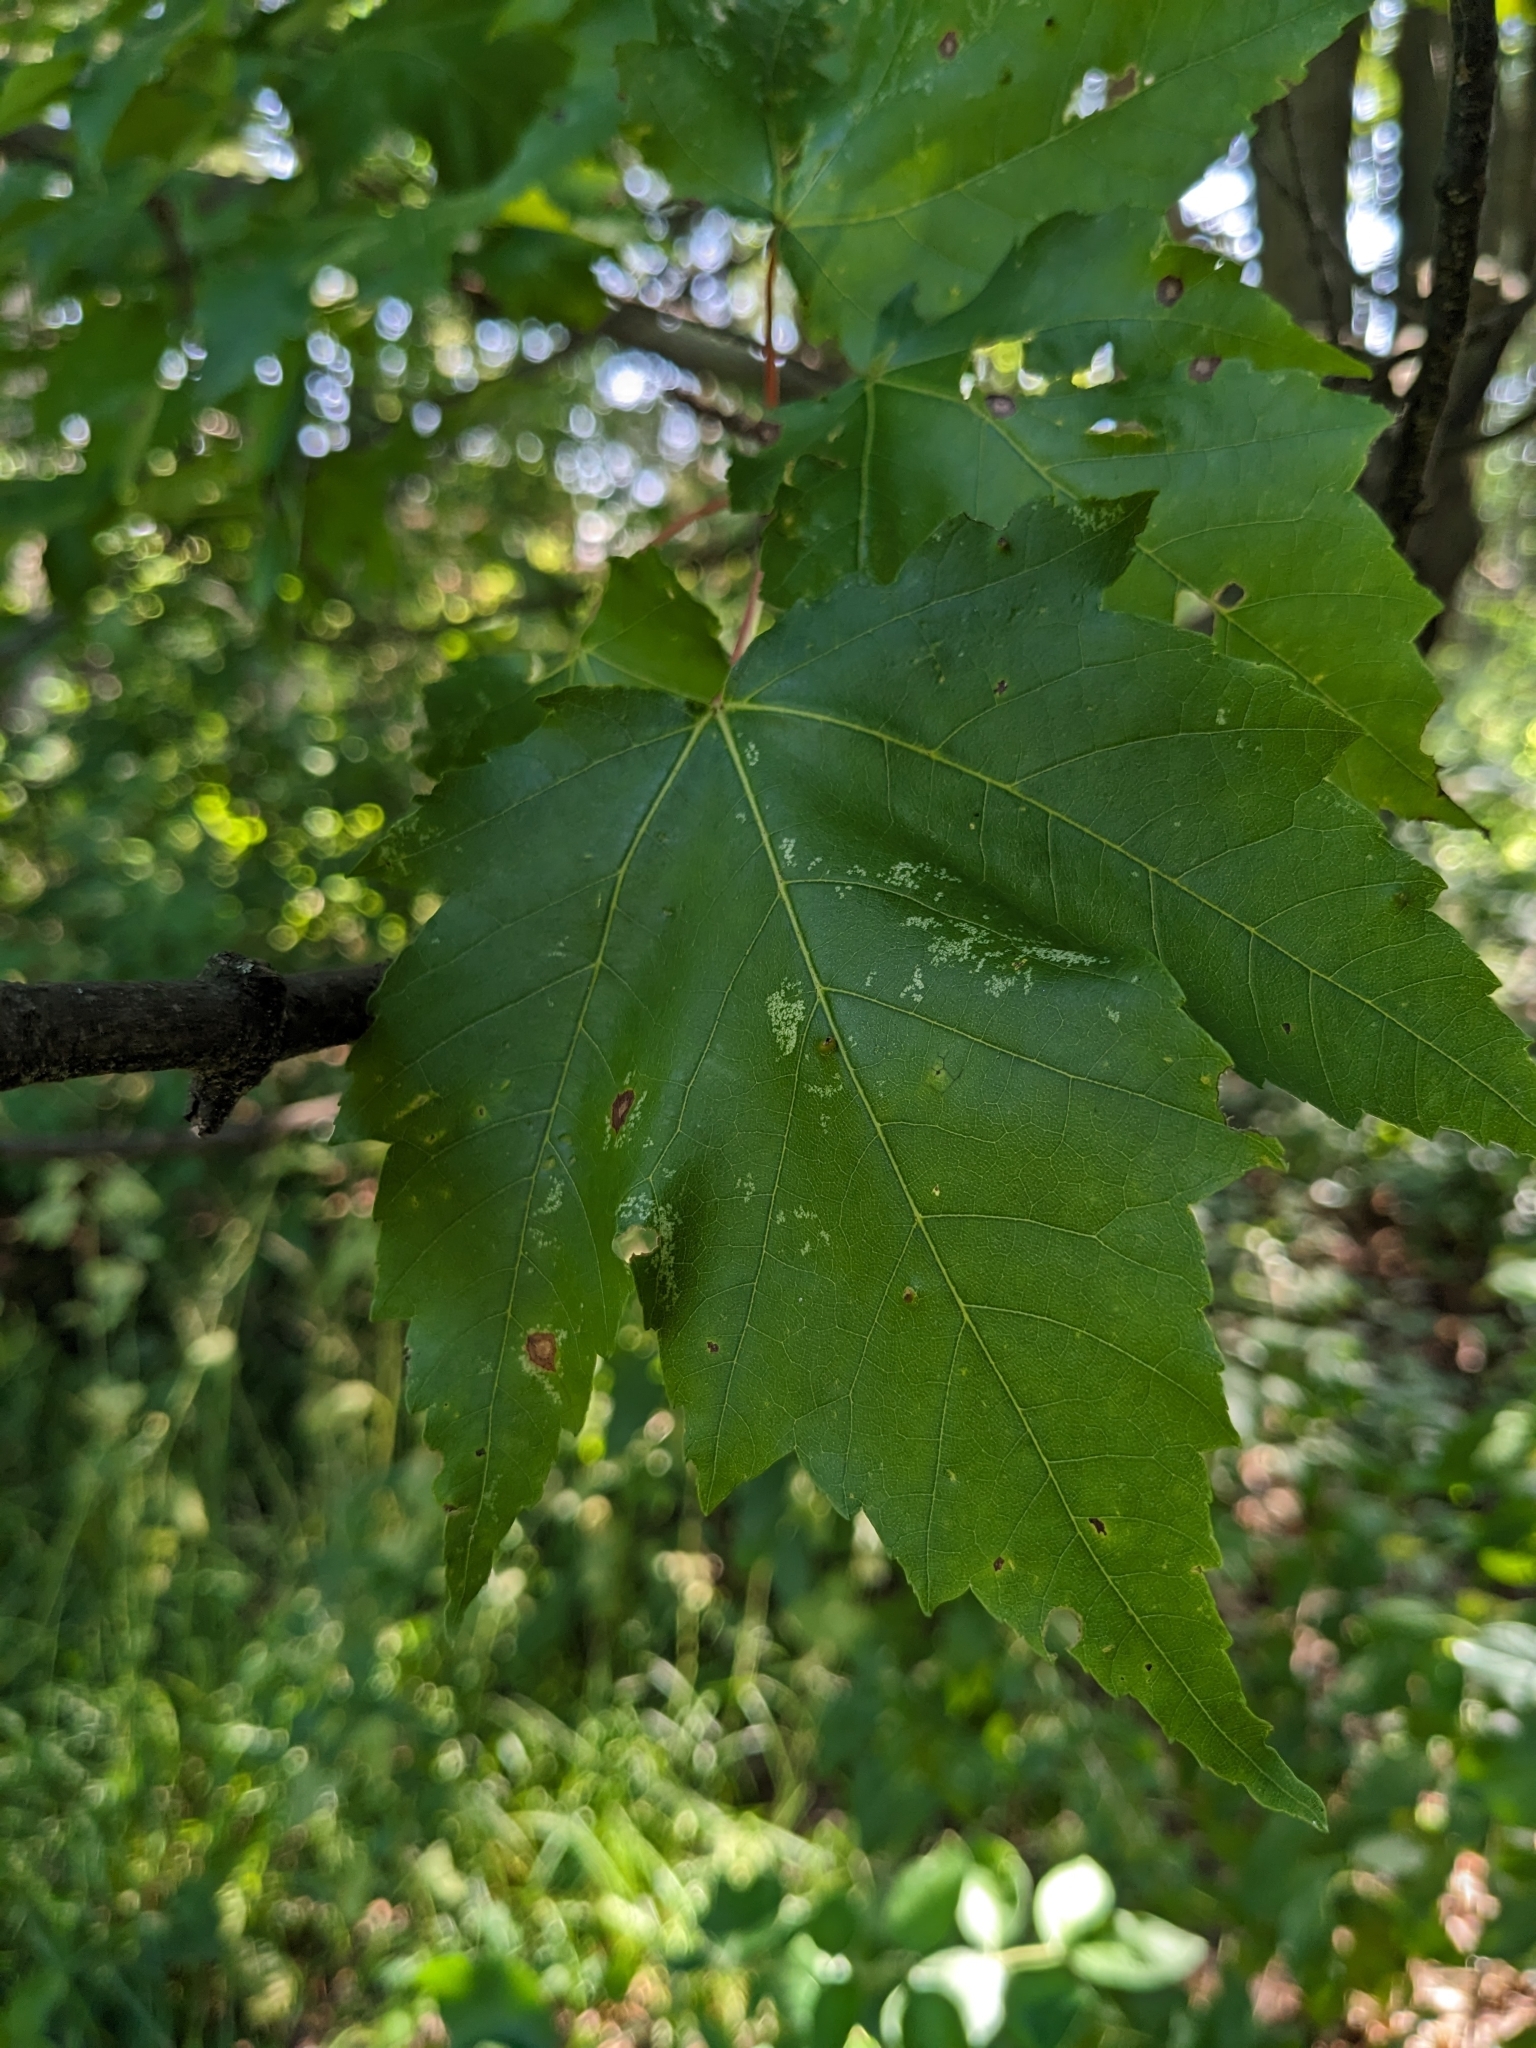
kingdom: Plantae
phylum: Tracheophyta
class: Magnoliopsida
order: Sapindales
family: Sapindaceae
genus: Acer
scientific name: Acer rubrum
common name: Red maple
